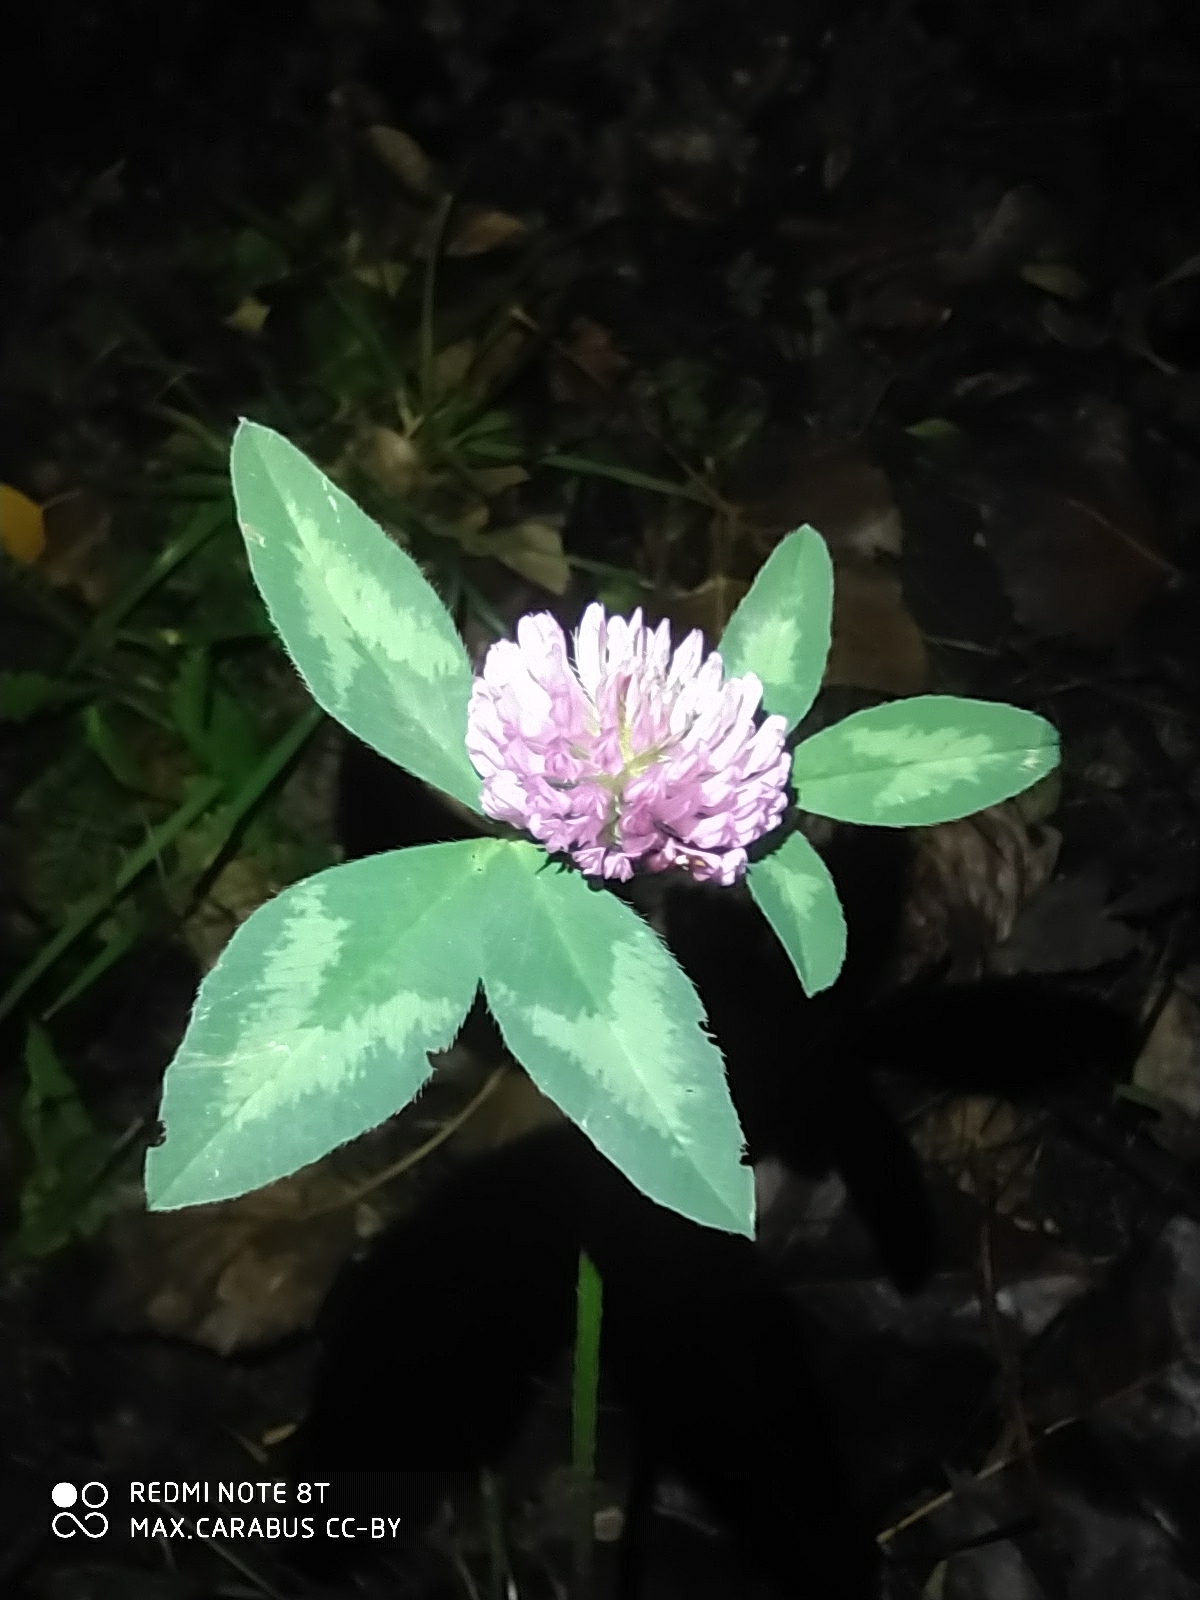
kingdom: Plantae
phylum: Tracheophyta
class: Magnoliopsida
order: Fabales
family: Fabaceae
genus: Trifolium
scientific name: Trifolium pratense
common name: Red clover
